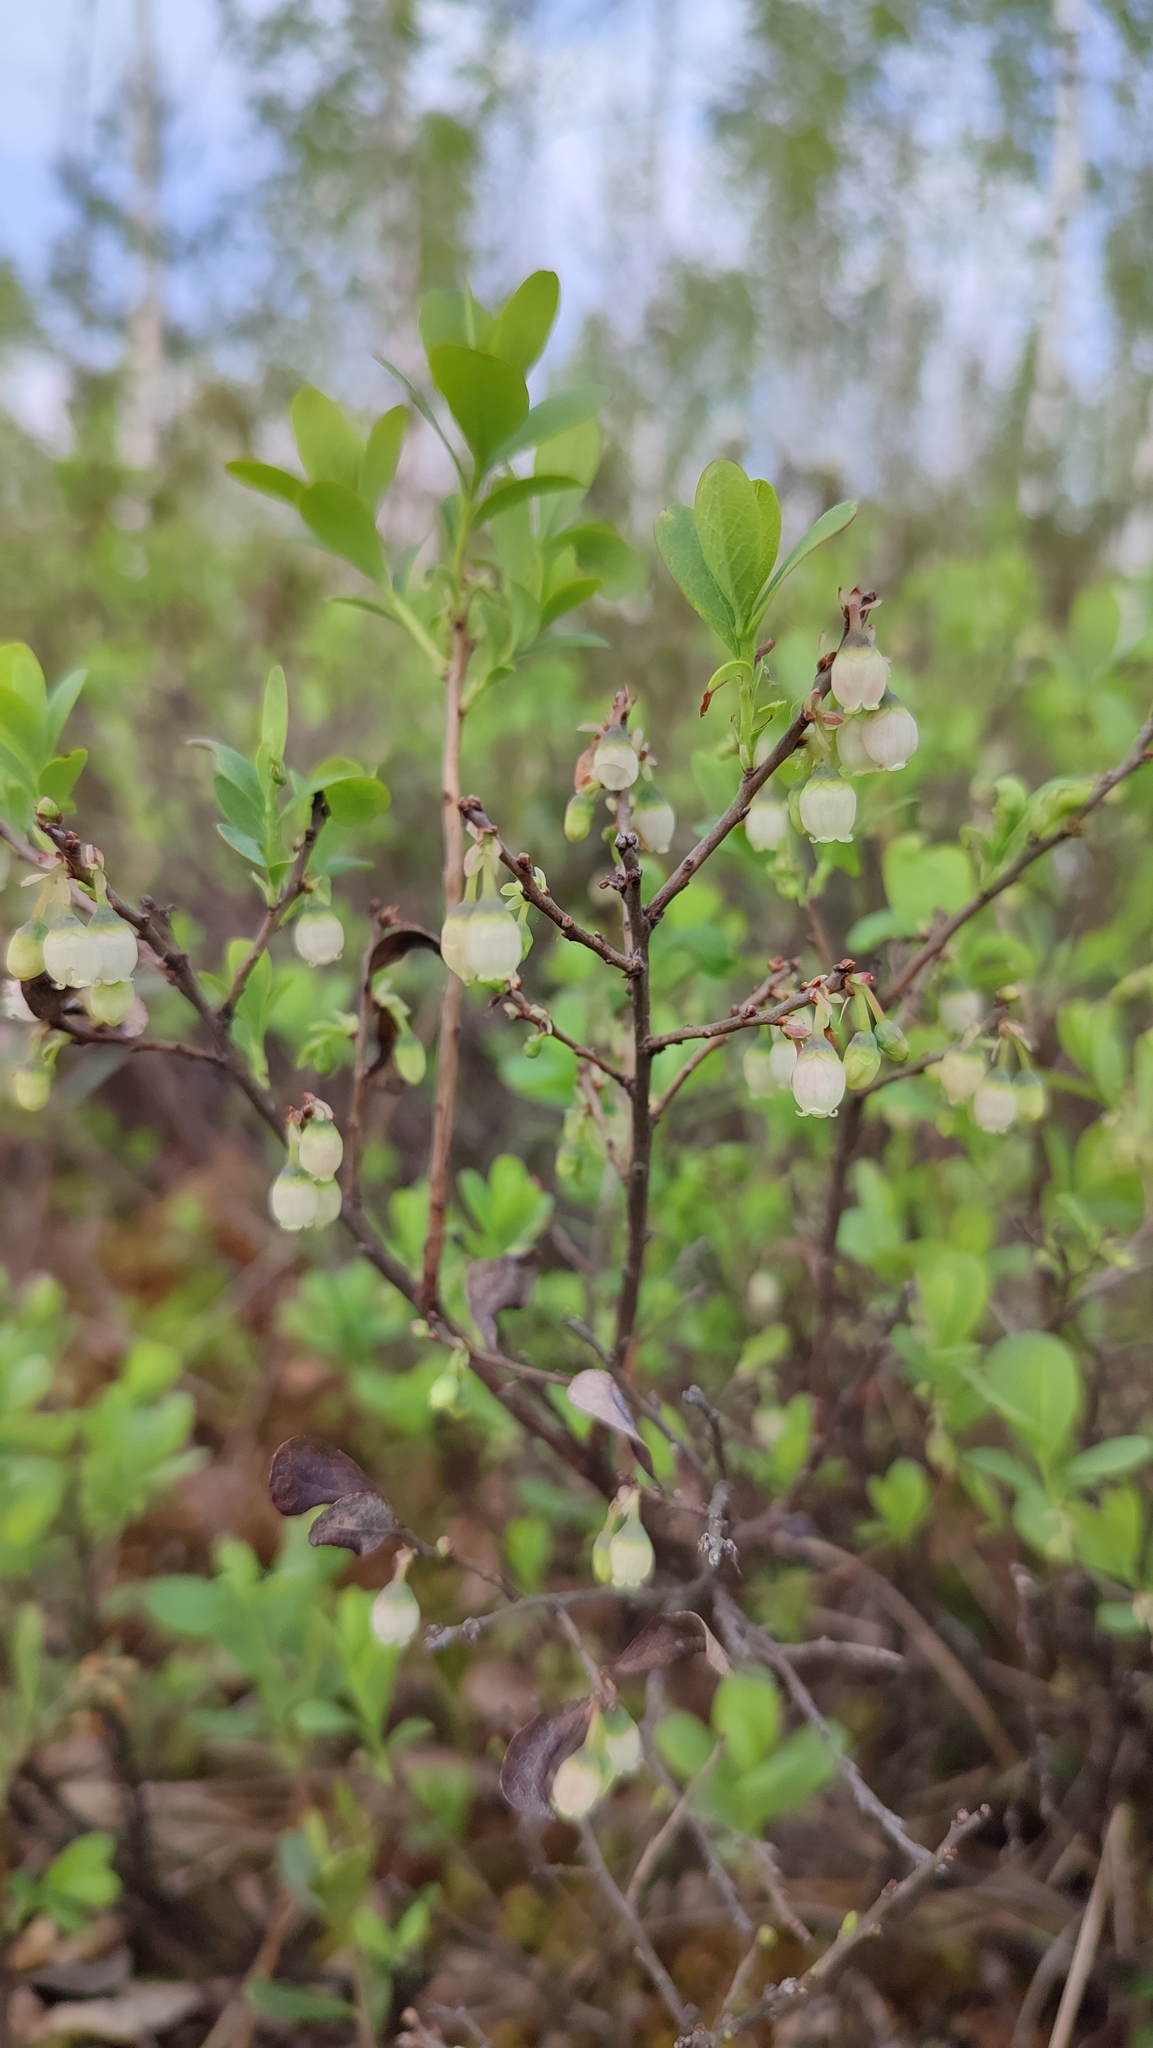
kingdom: Plantae
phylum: Tracheophyta
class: Magnoliopsida
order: Ericales
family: Ericaceae
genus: Vaccinium
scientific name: Vaccinium uliginosum
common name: Bog bilberry
